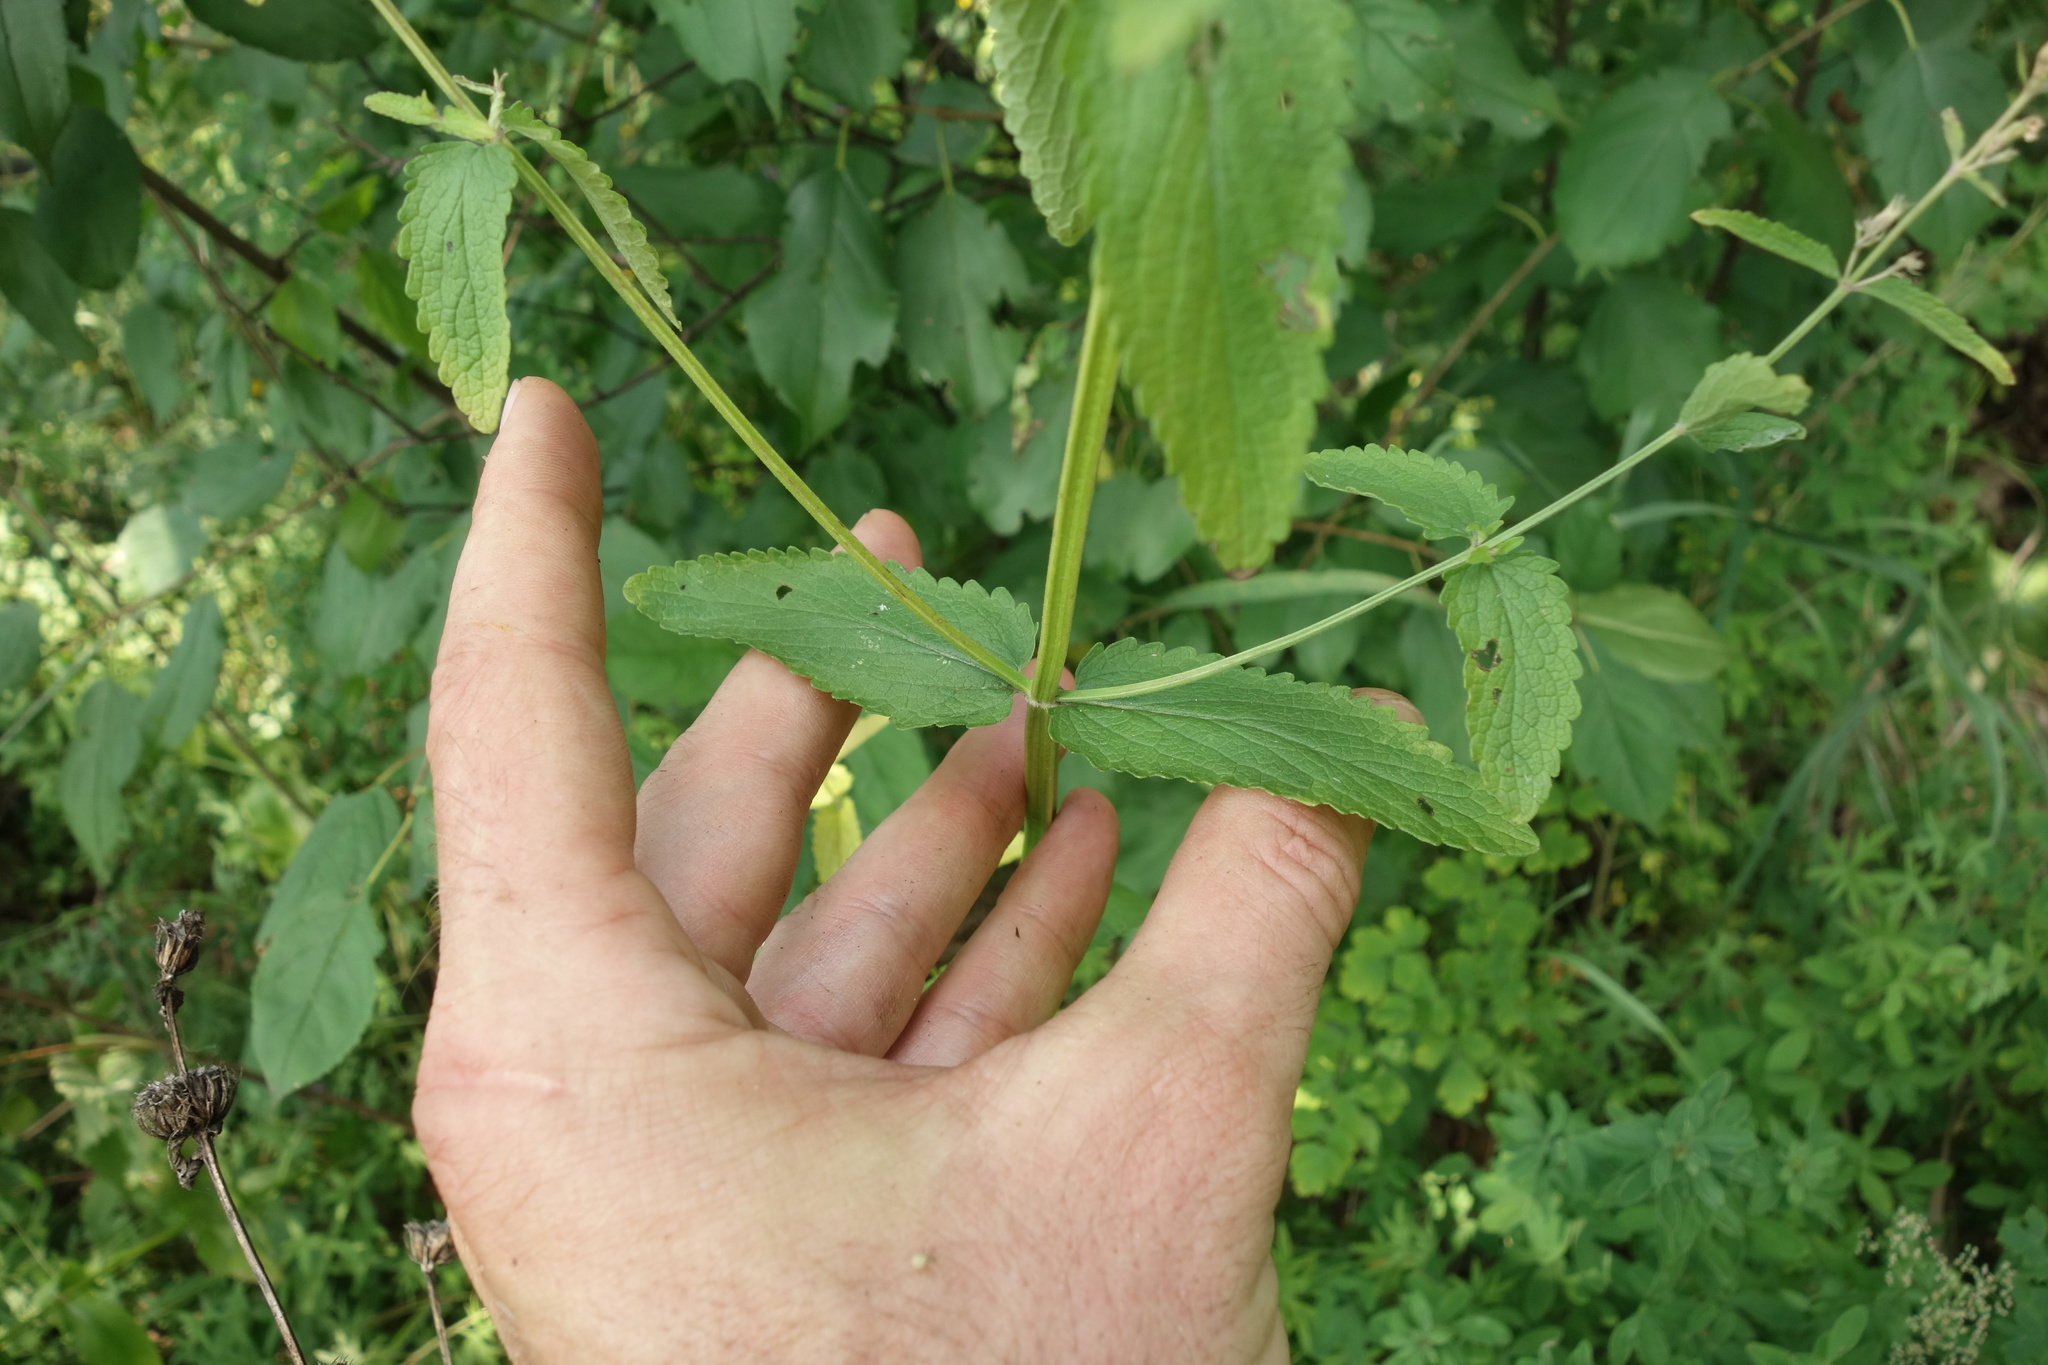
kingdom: Plantae
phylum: Tracheophyta
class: Magnoliopsida
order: Lamiales
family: Lamiaceae
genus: Nepeta
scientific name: Nepeta nuda
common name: Hairless catmint
